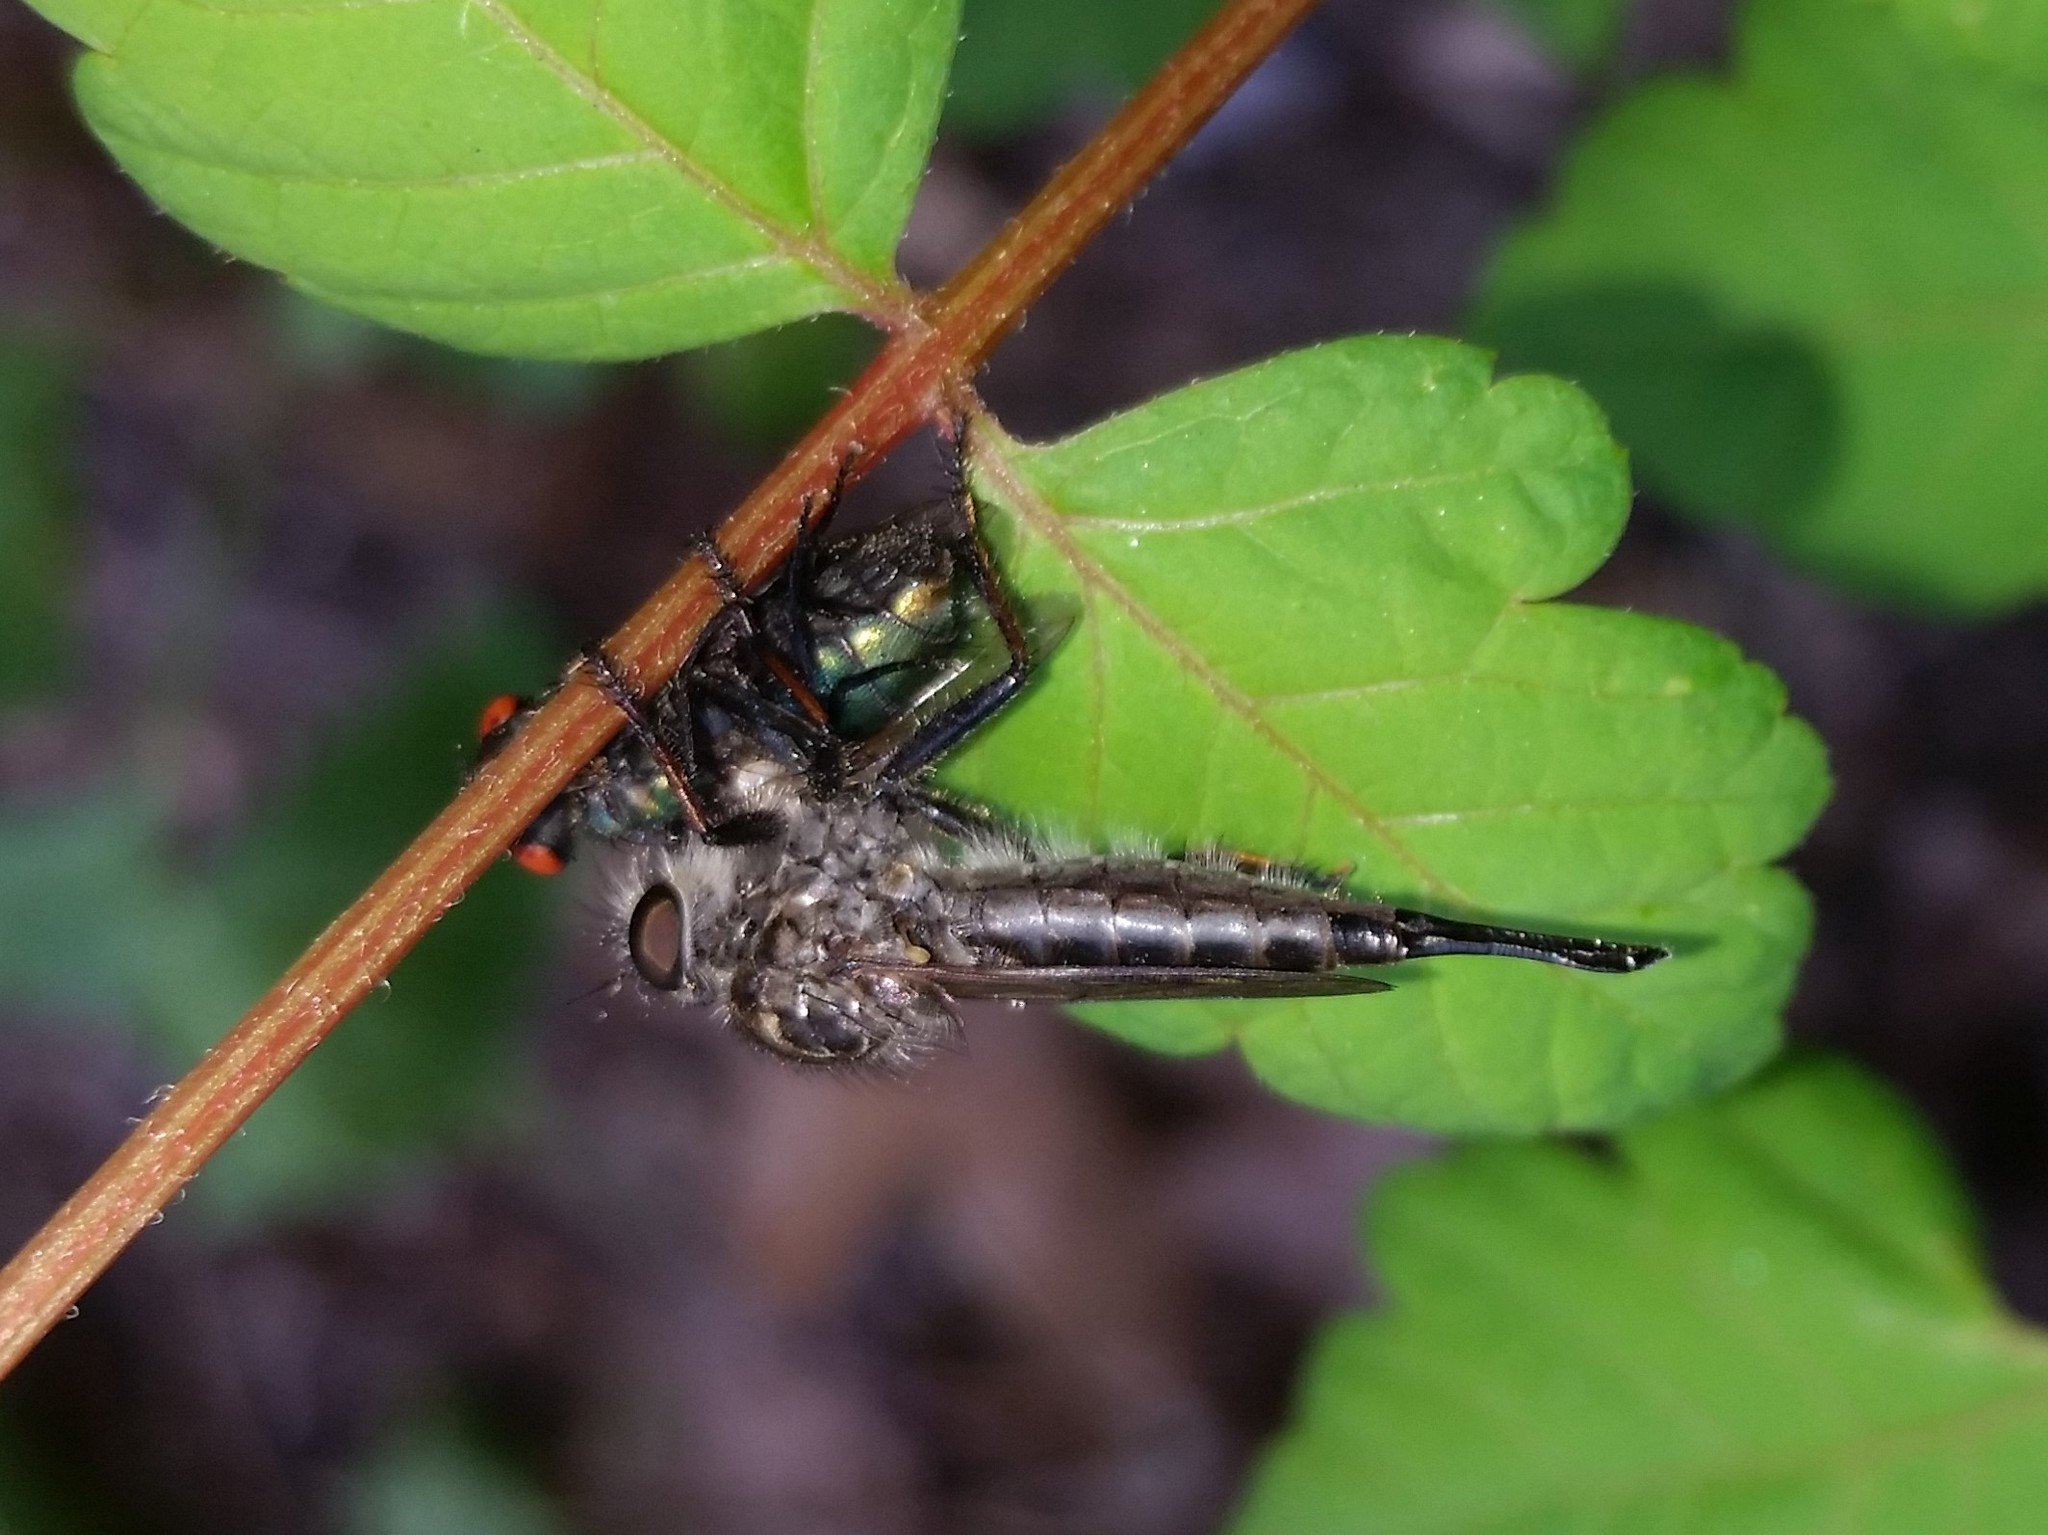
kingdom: Animalia
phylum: Arthropoda
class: Insecta
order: Diptera
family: Asilidae
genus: Efferia
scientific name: Efferia aestuans
